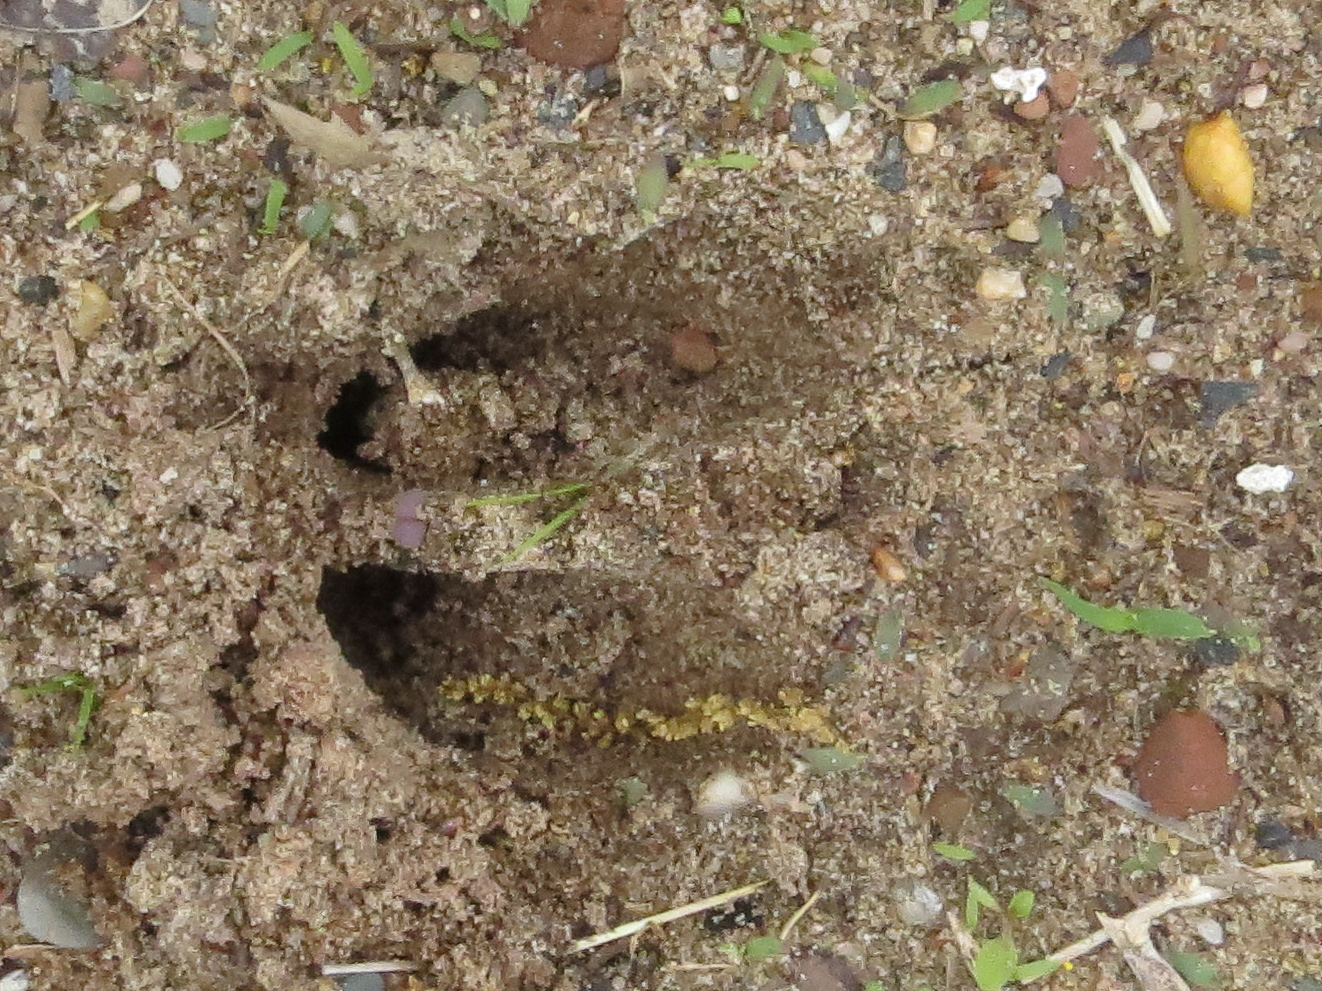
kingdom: Animalia
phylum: Chordata
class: Mammalia
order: Artiodactyla
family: Cervidae
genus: Odocoileus
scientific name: Odocoileus virginianus
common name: White-tailed deer
